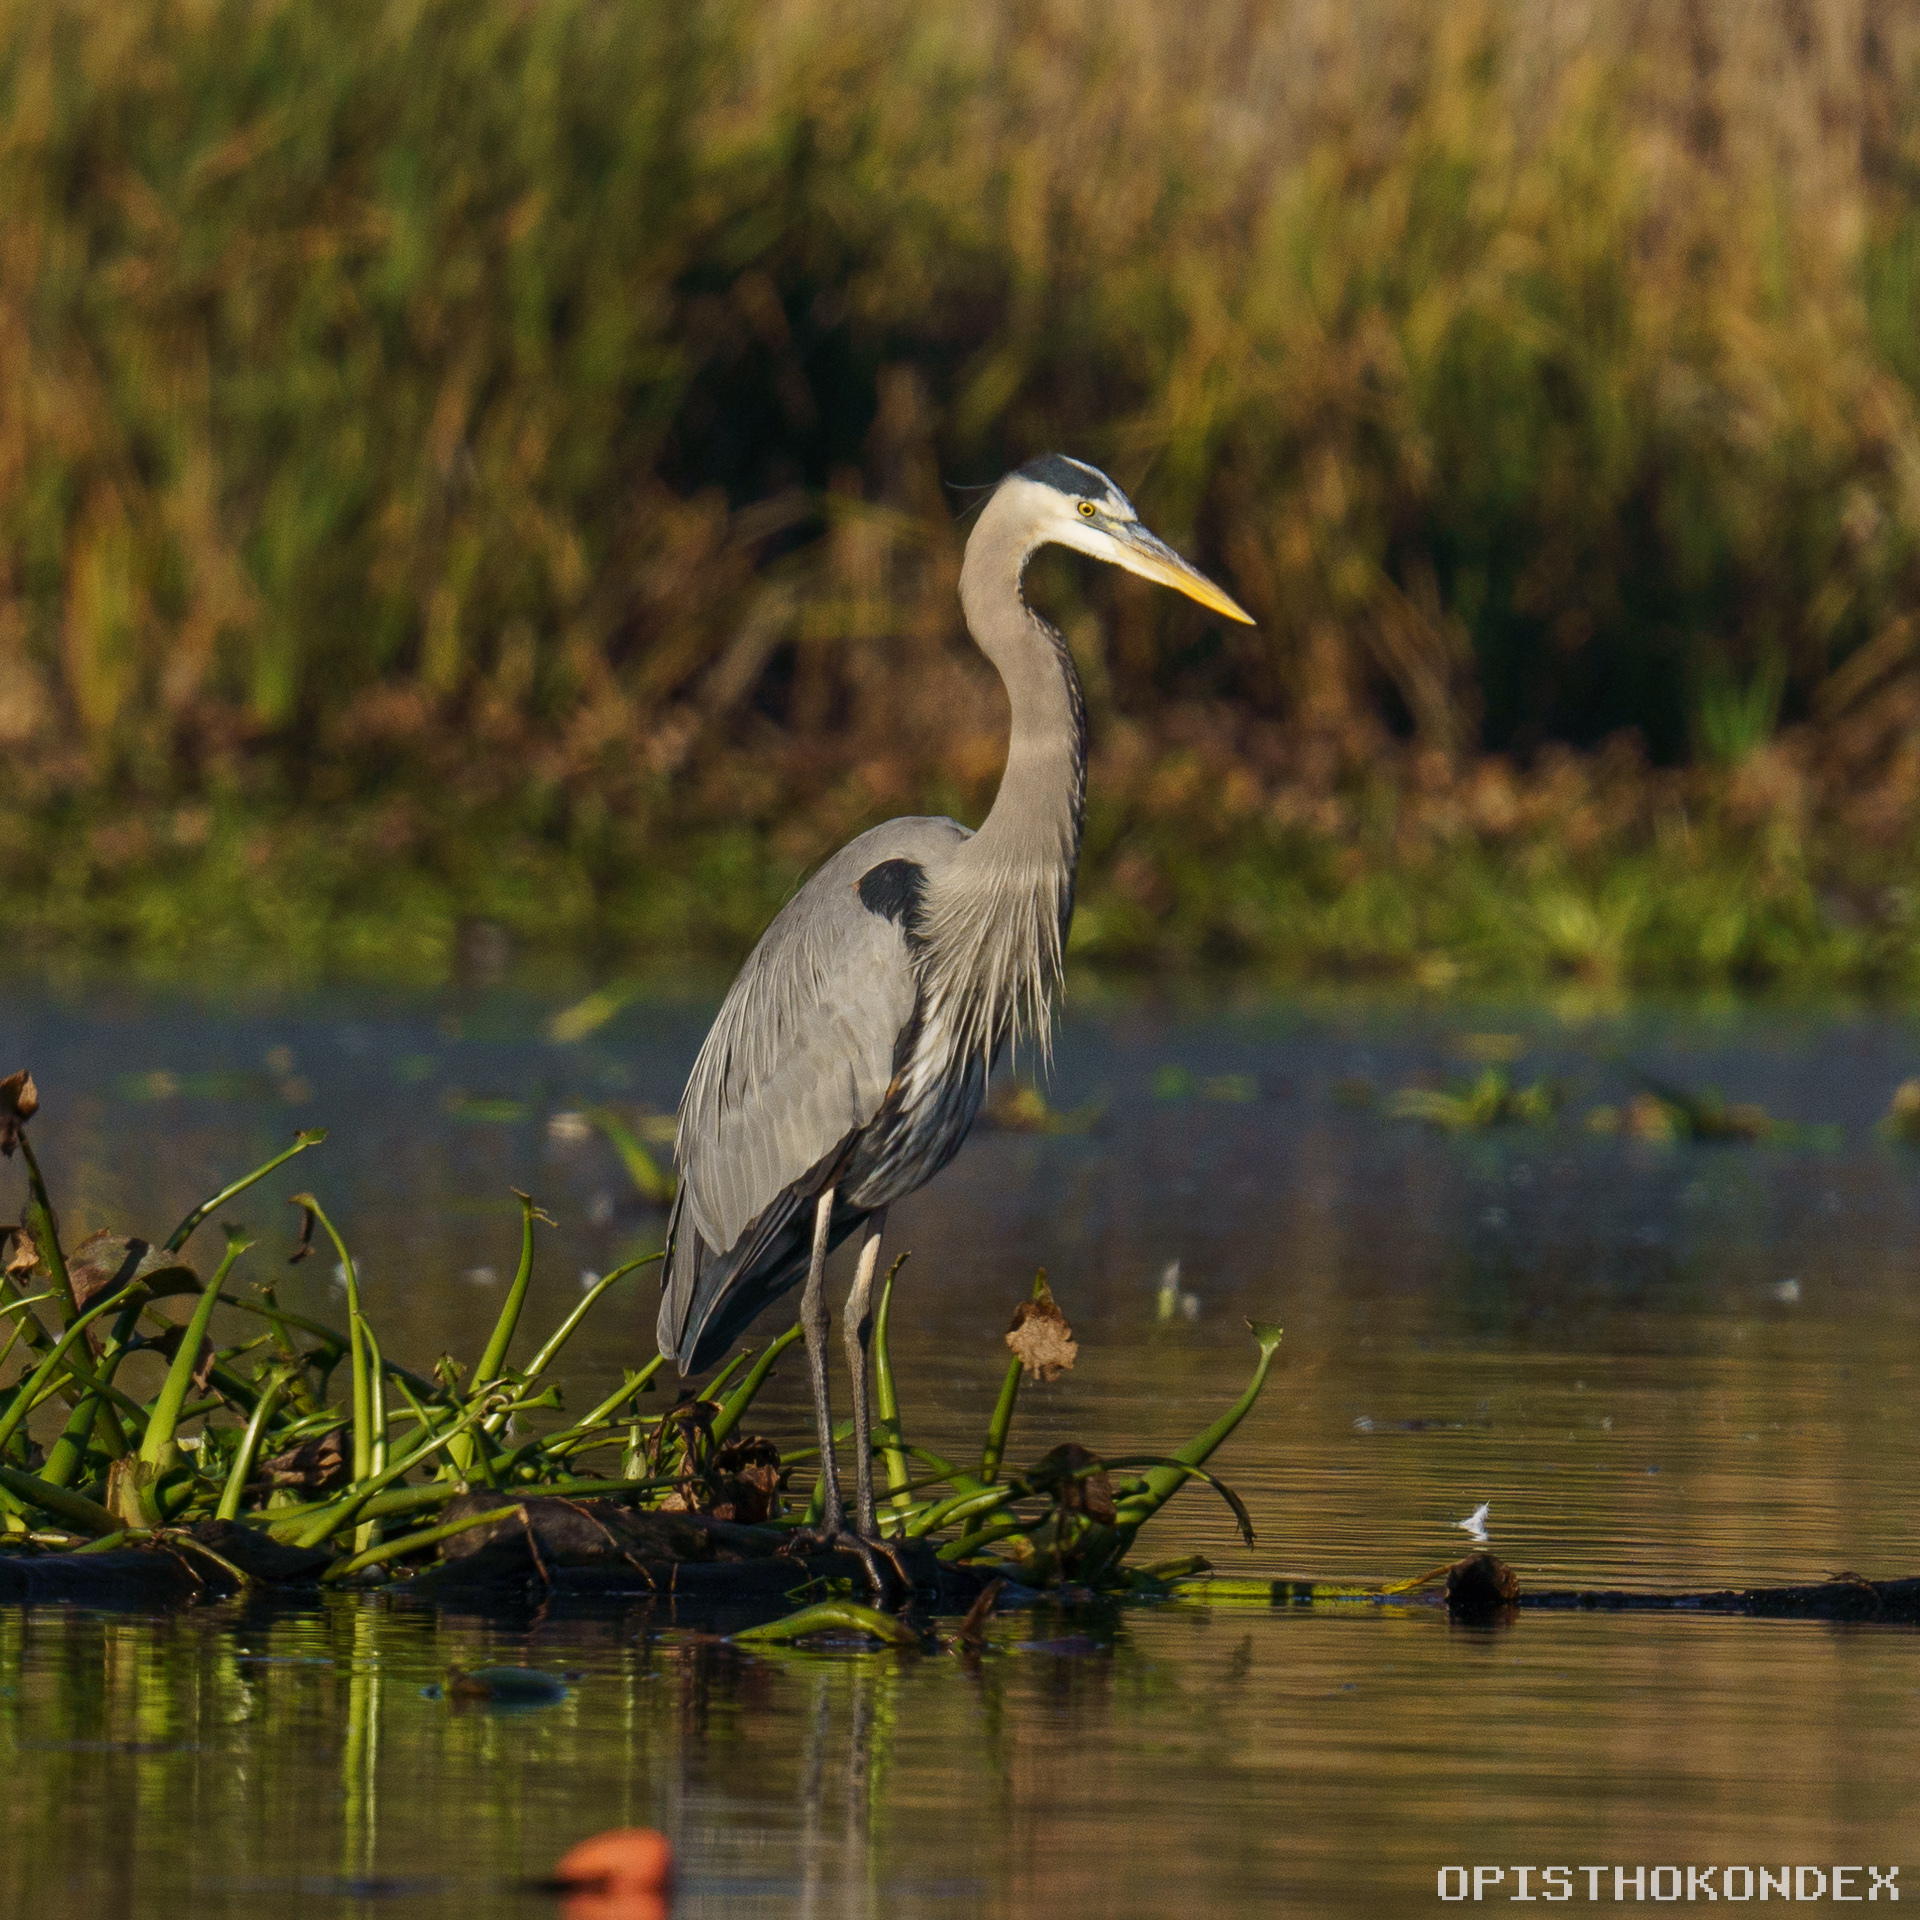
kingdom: Animalia
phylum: Chordata
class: Aves
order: Pelecaniformes
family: Ardeidae
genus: Ardea
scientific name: Ardea herodias
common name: Great blue heron
